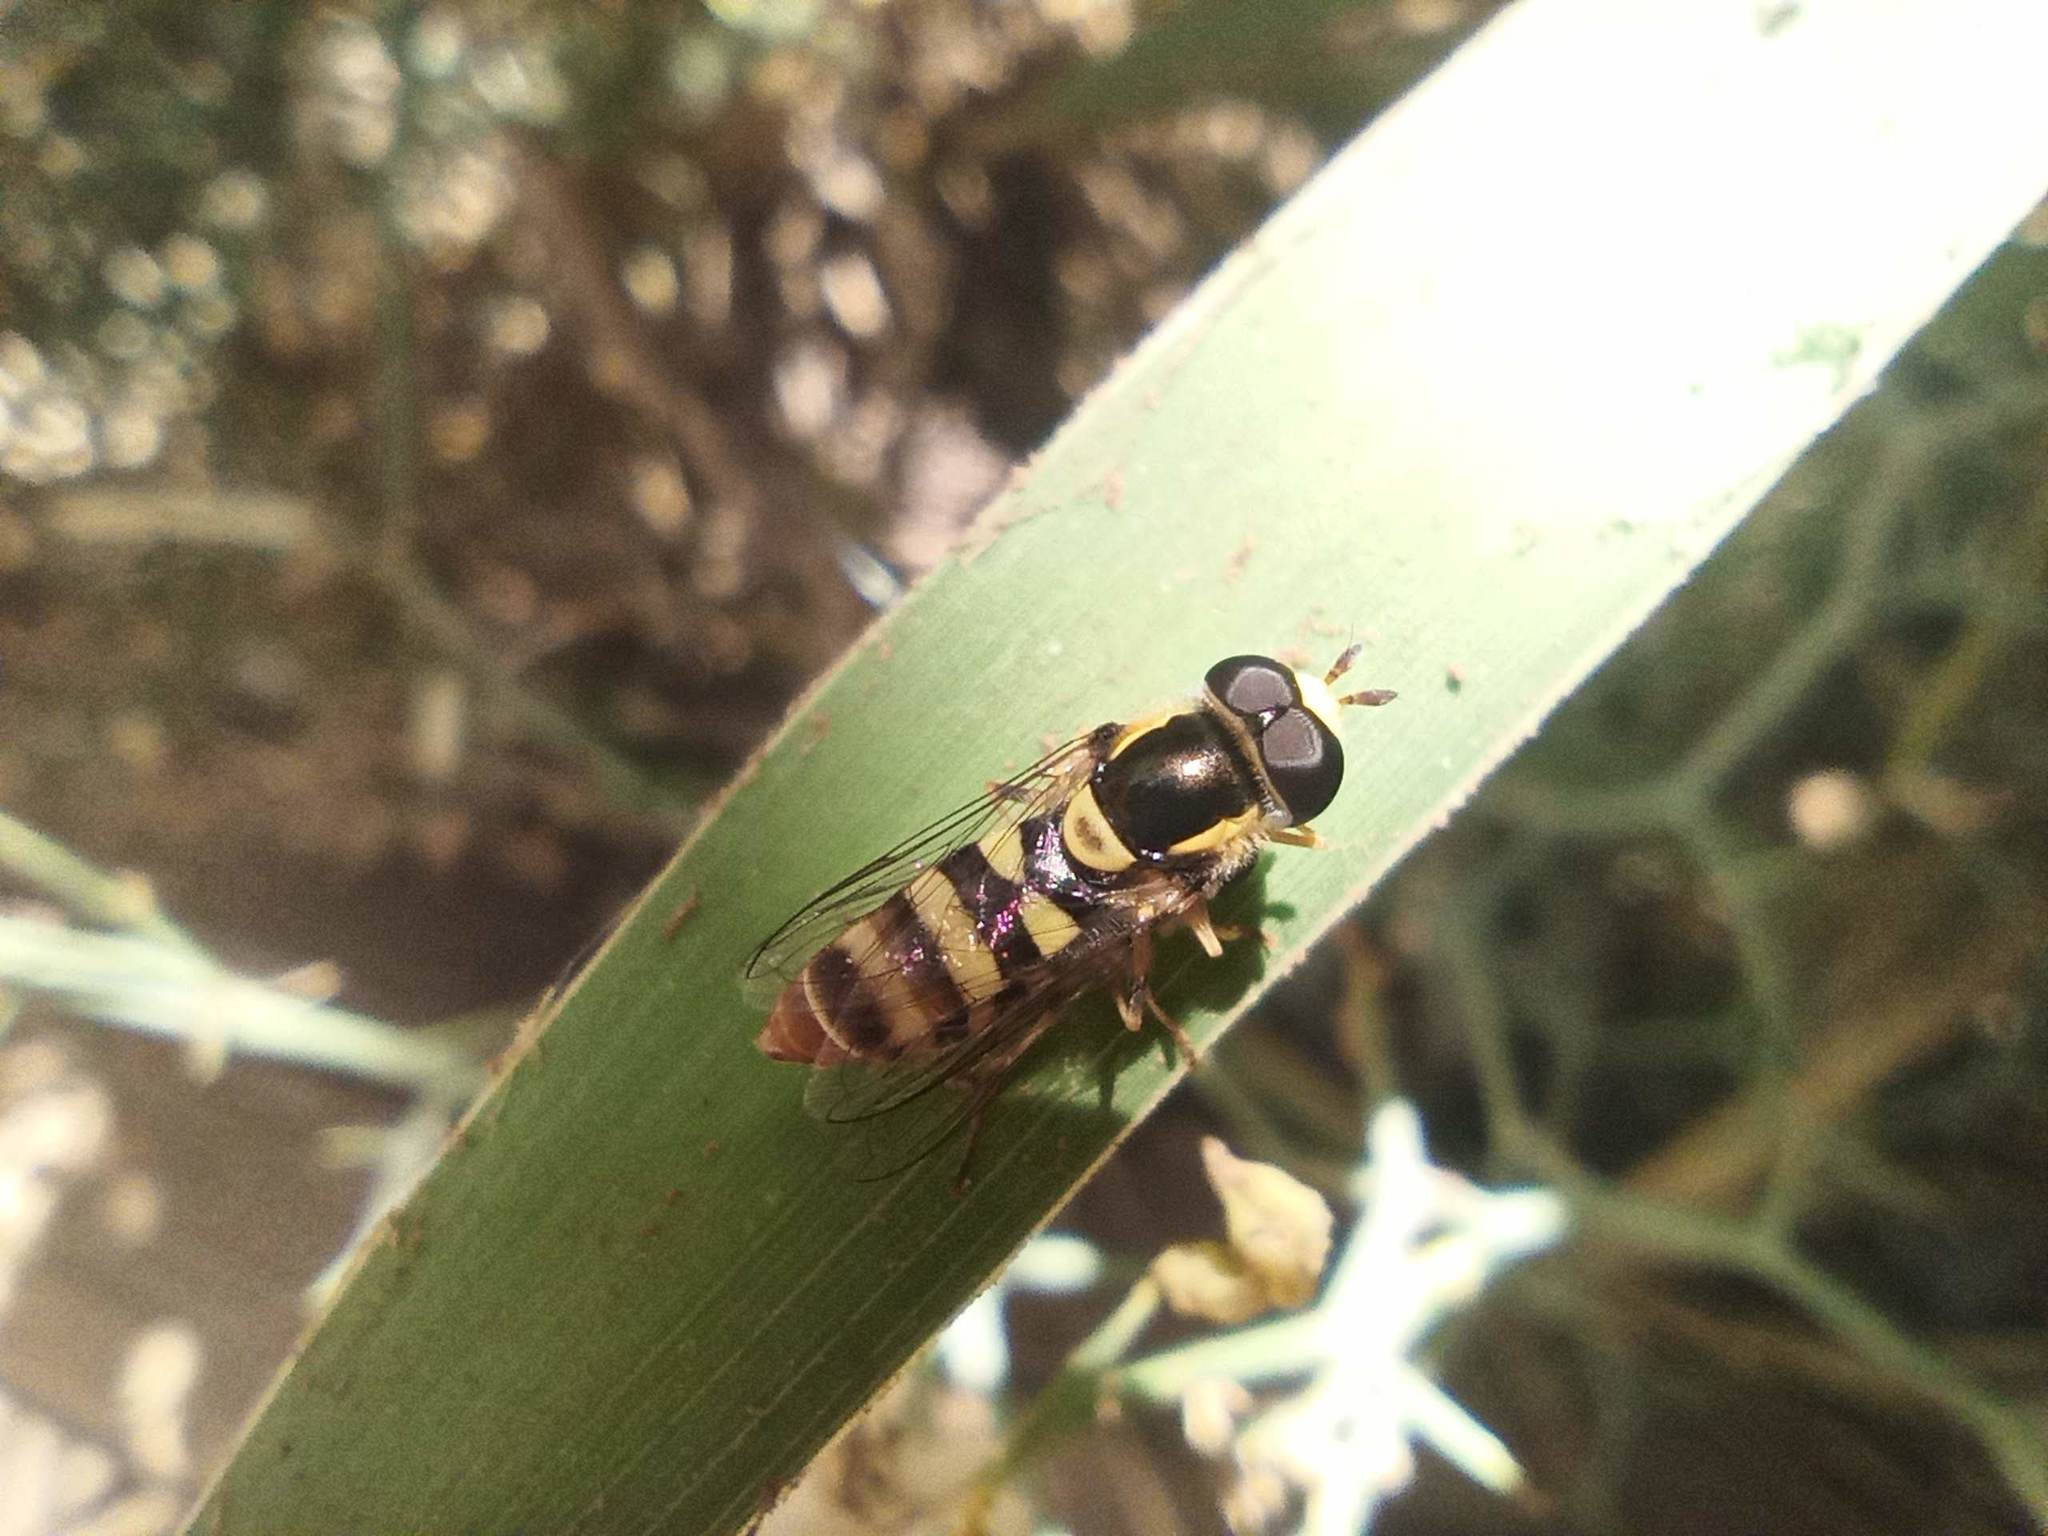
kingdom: Animalia
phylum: Arthropoda
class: Insecta
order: Diptera
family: Syrphidae
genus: Ischiodon
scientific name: Ischiodon aegyptius
